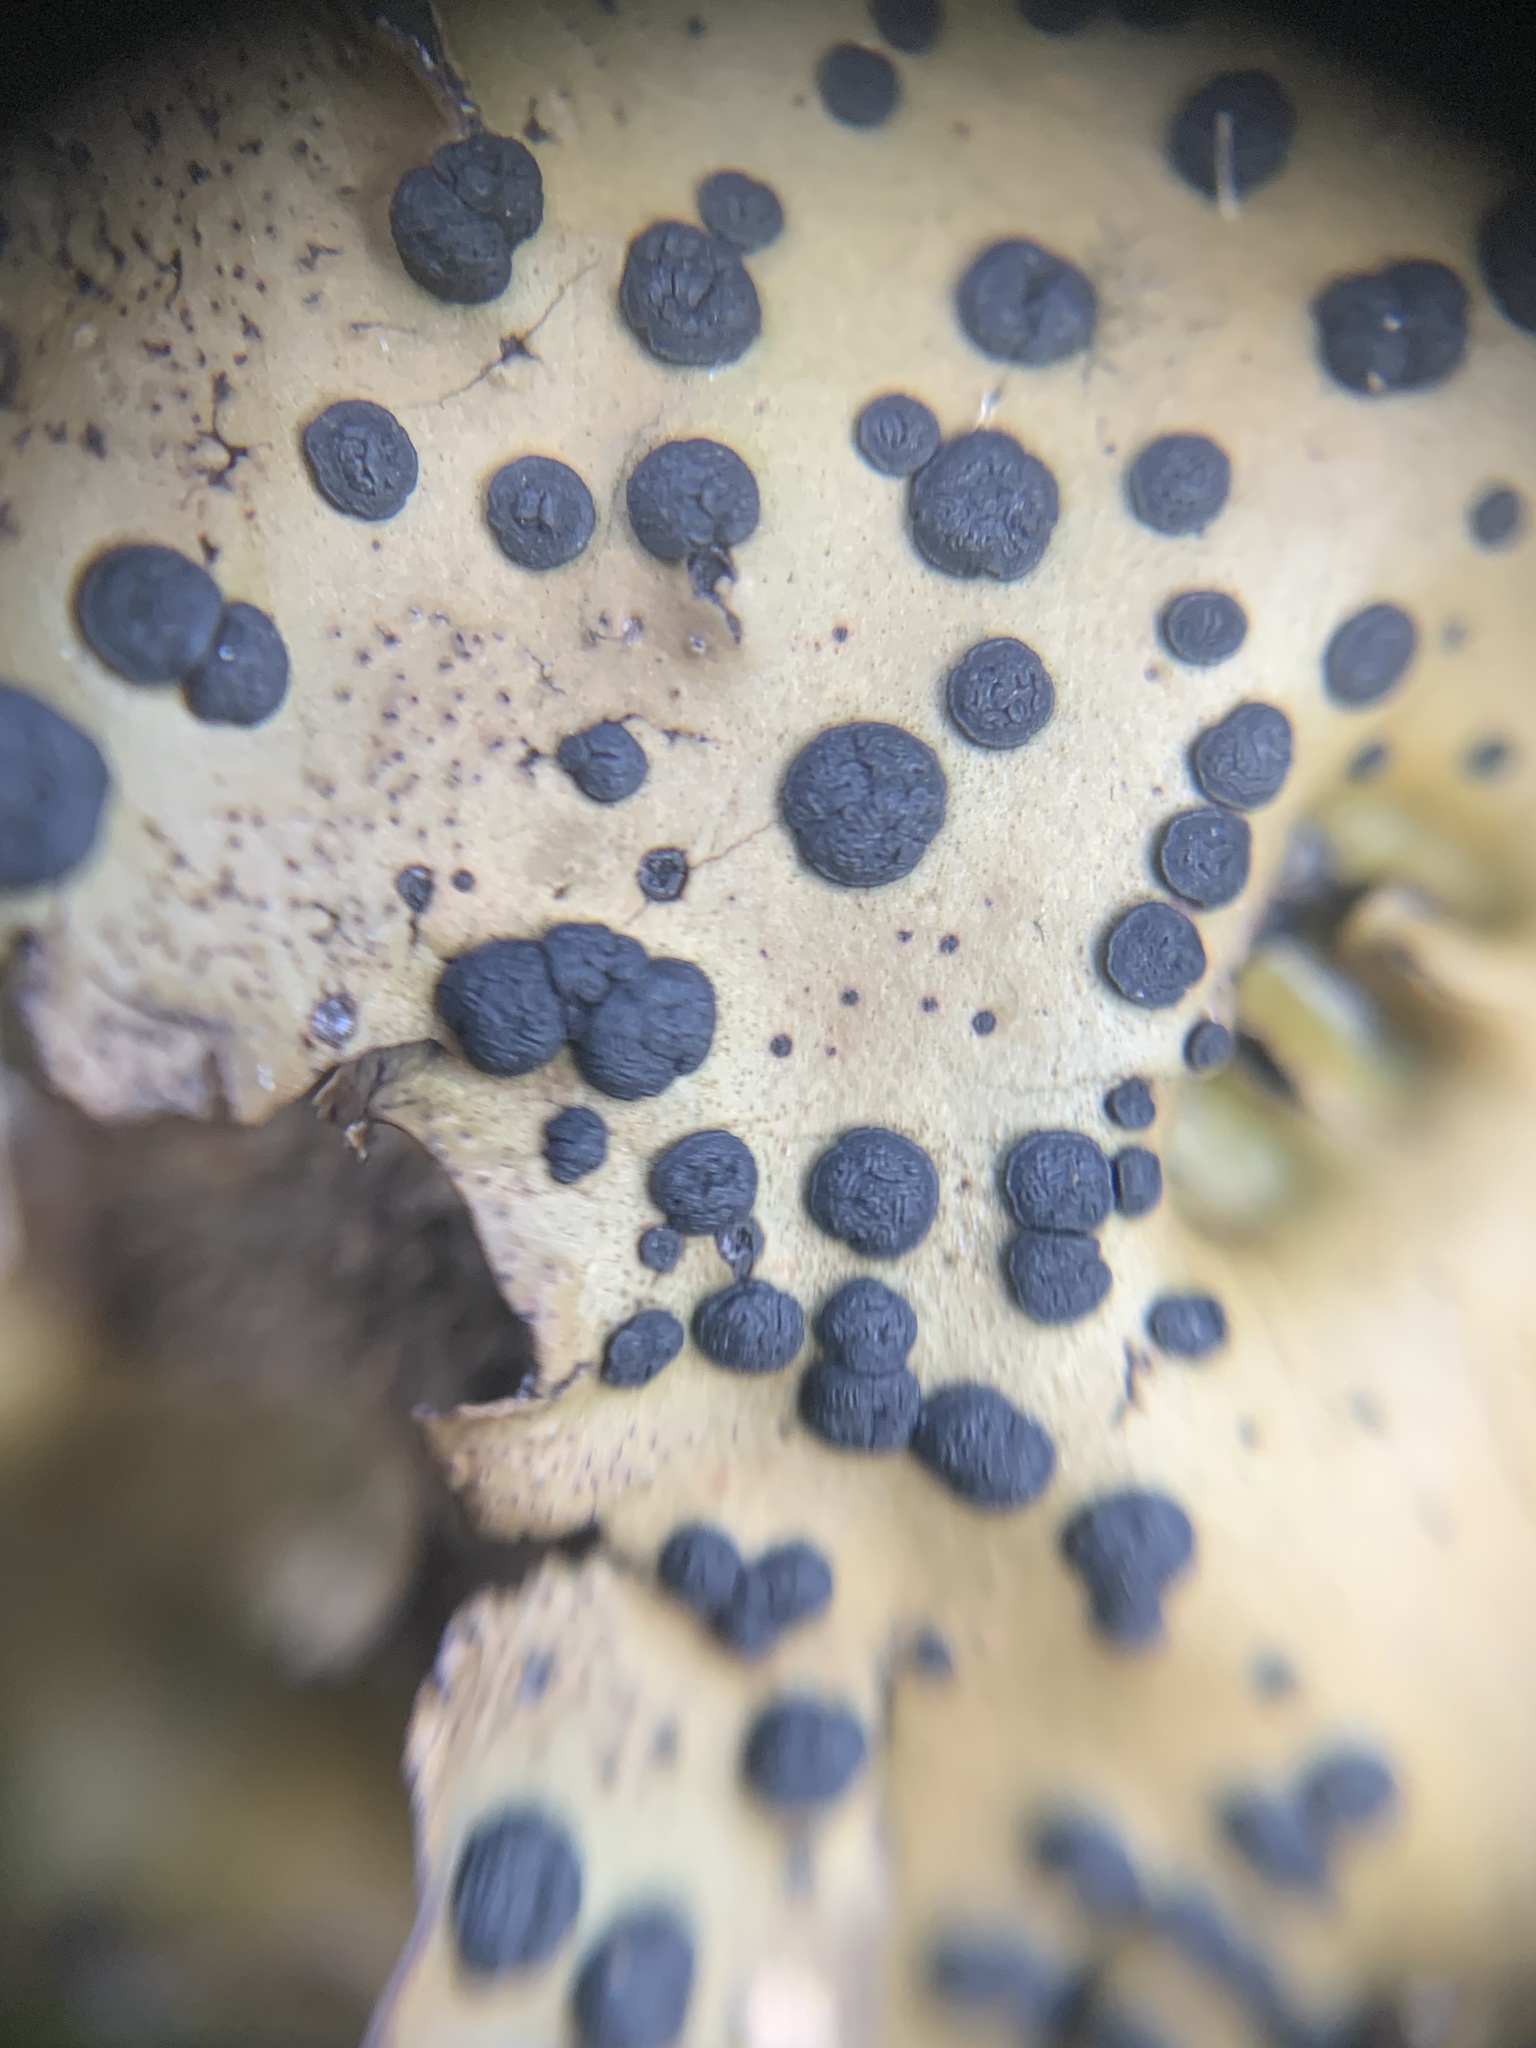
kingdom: Fungi
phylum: Ascomycota
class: Lecanoromycetes
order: Umbilicariales
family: Umbilicariaceae
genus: Umbilicaria
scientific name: Umbilicaria phaea
